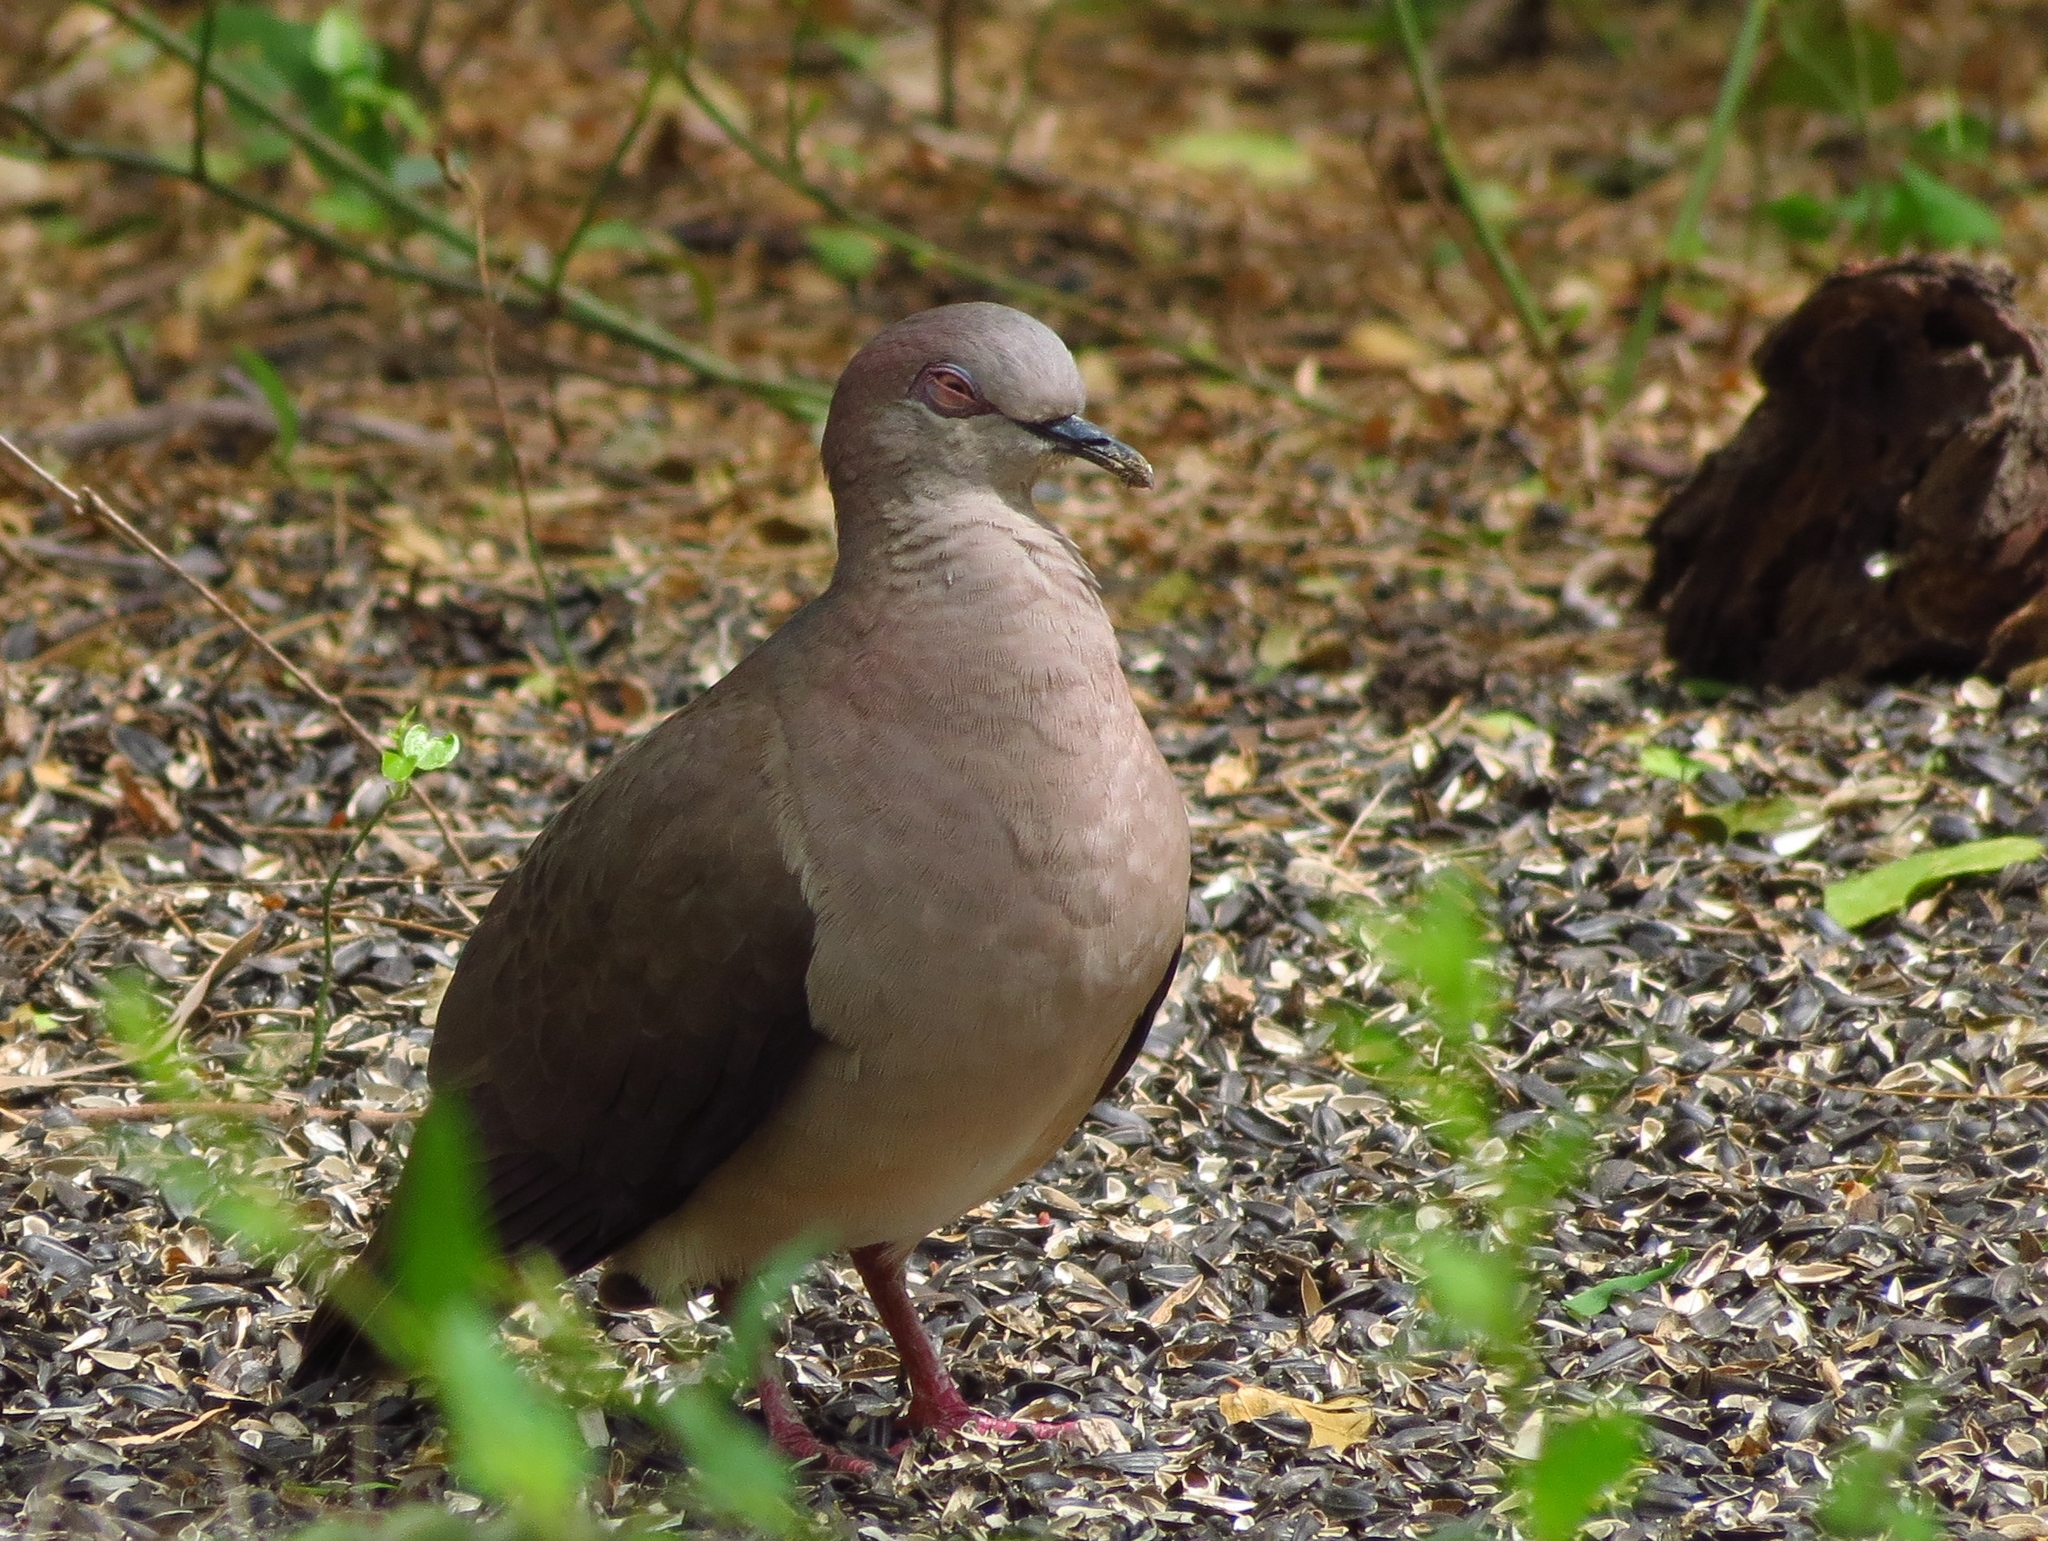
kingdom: Animalia
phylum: Chordata
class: Aves
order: Columbiformes
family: Columbidae
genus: Leptotila
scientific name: Leptotila verreauxi
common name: White-tipped dove
